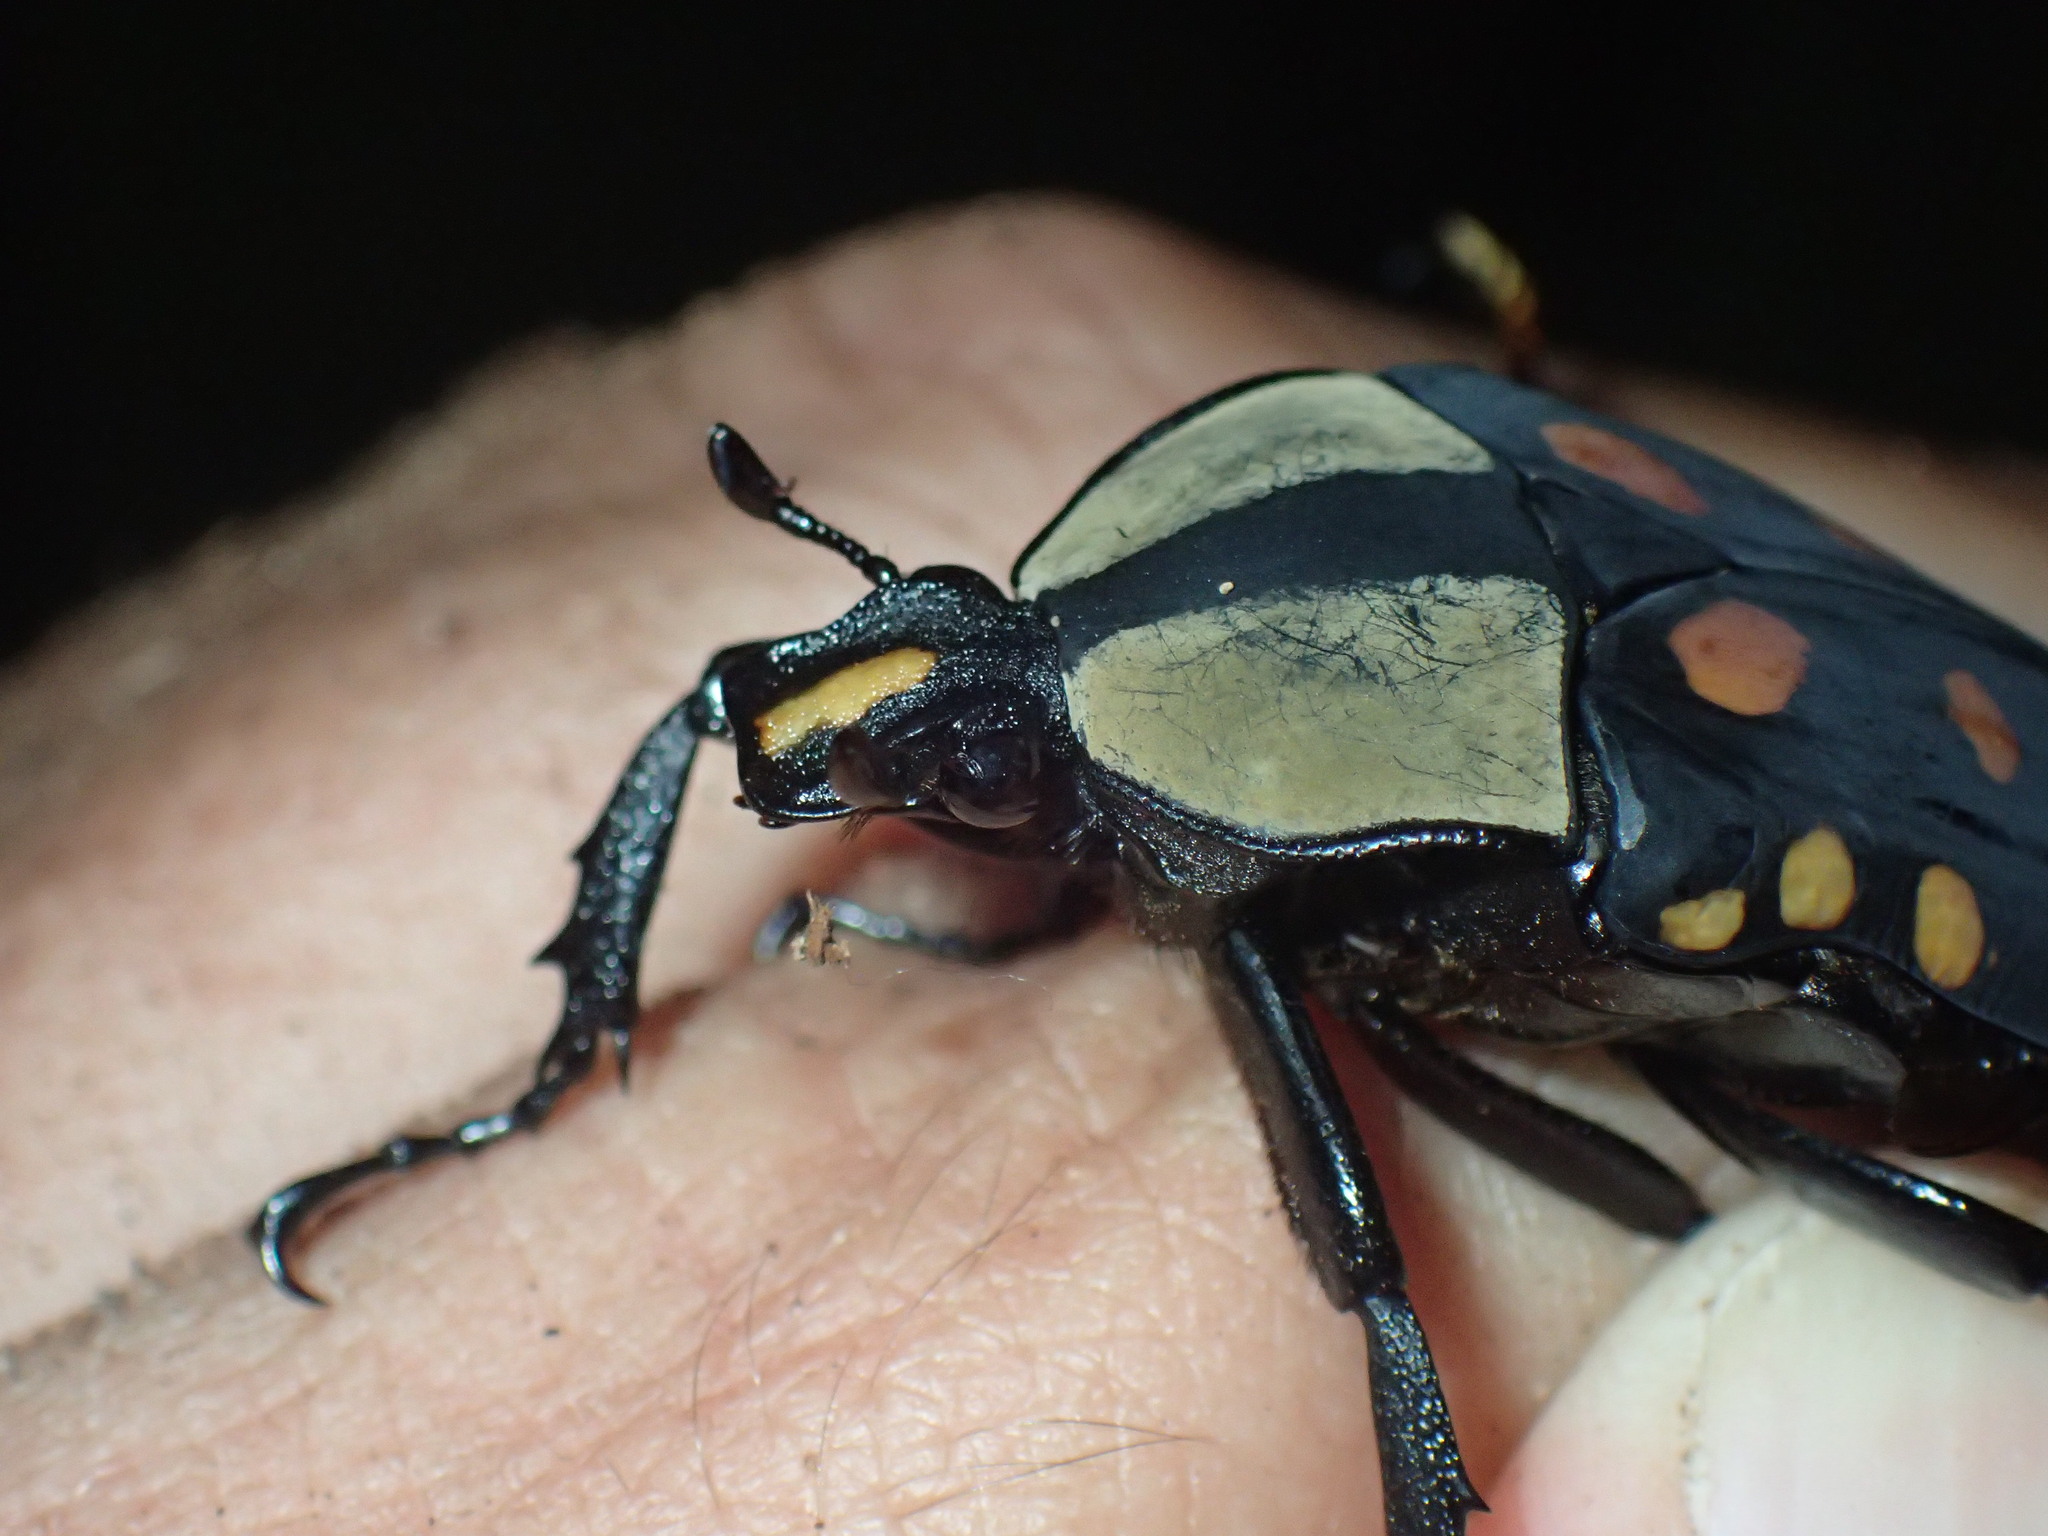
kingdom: Animalia
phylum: Arthropoda
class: Insecta
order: Coleoptera
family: Scarabaeidae
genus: Mecynorhina
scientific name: Mecynorhina passerinii
